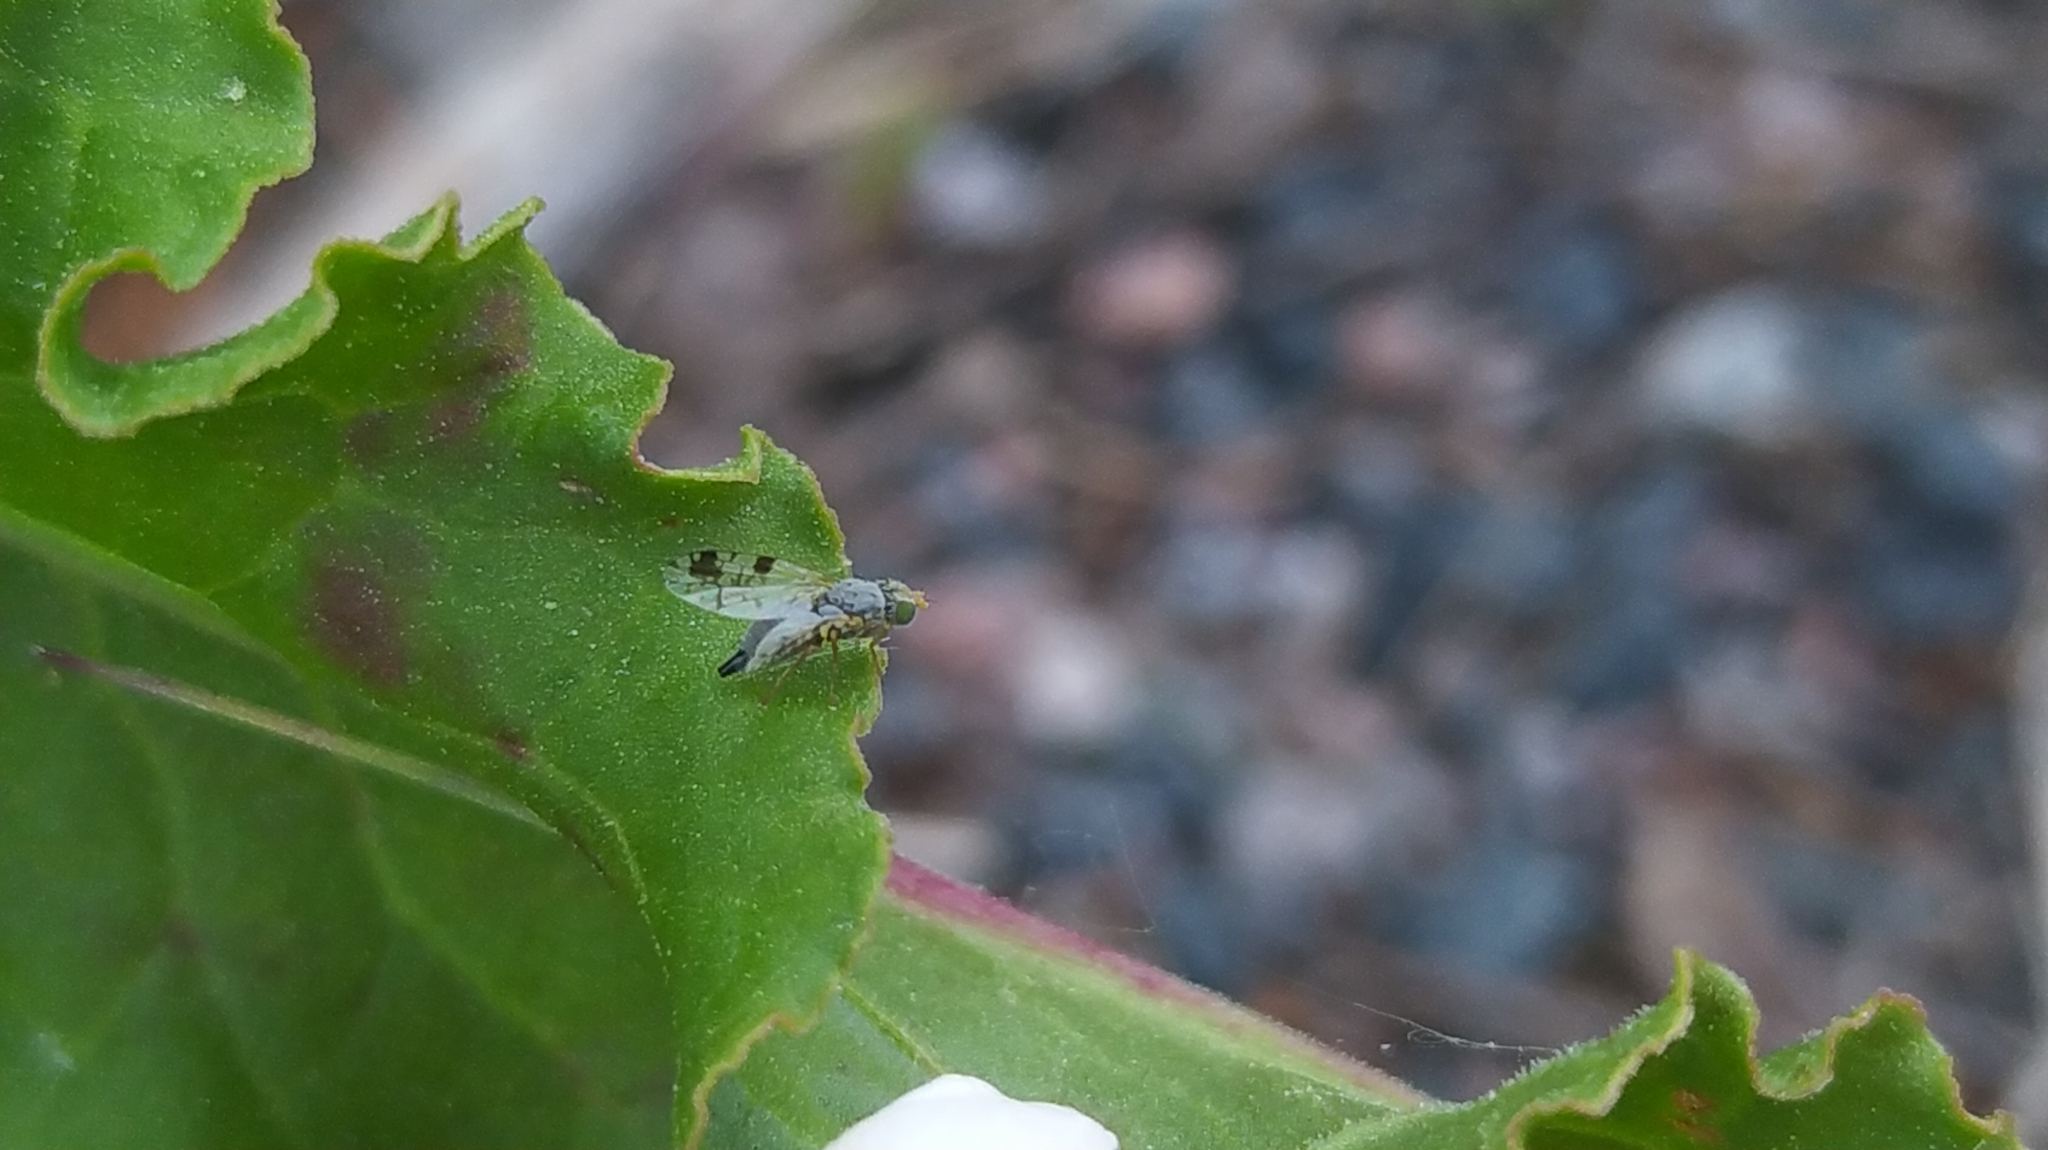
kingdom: Animalia
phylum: Arthropoda
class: Insecta
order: Diptera
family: Tephritidae
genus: Tephritis
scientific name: Tephritis angustipennis
